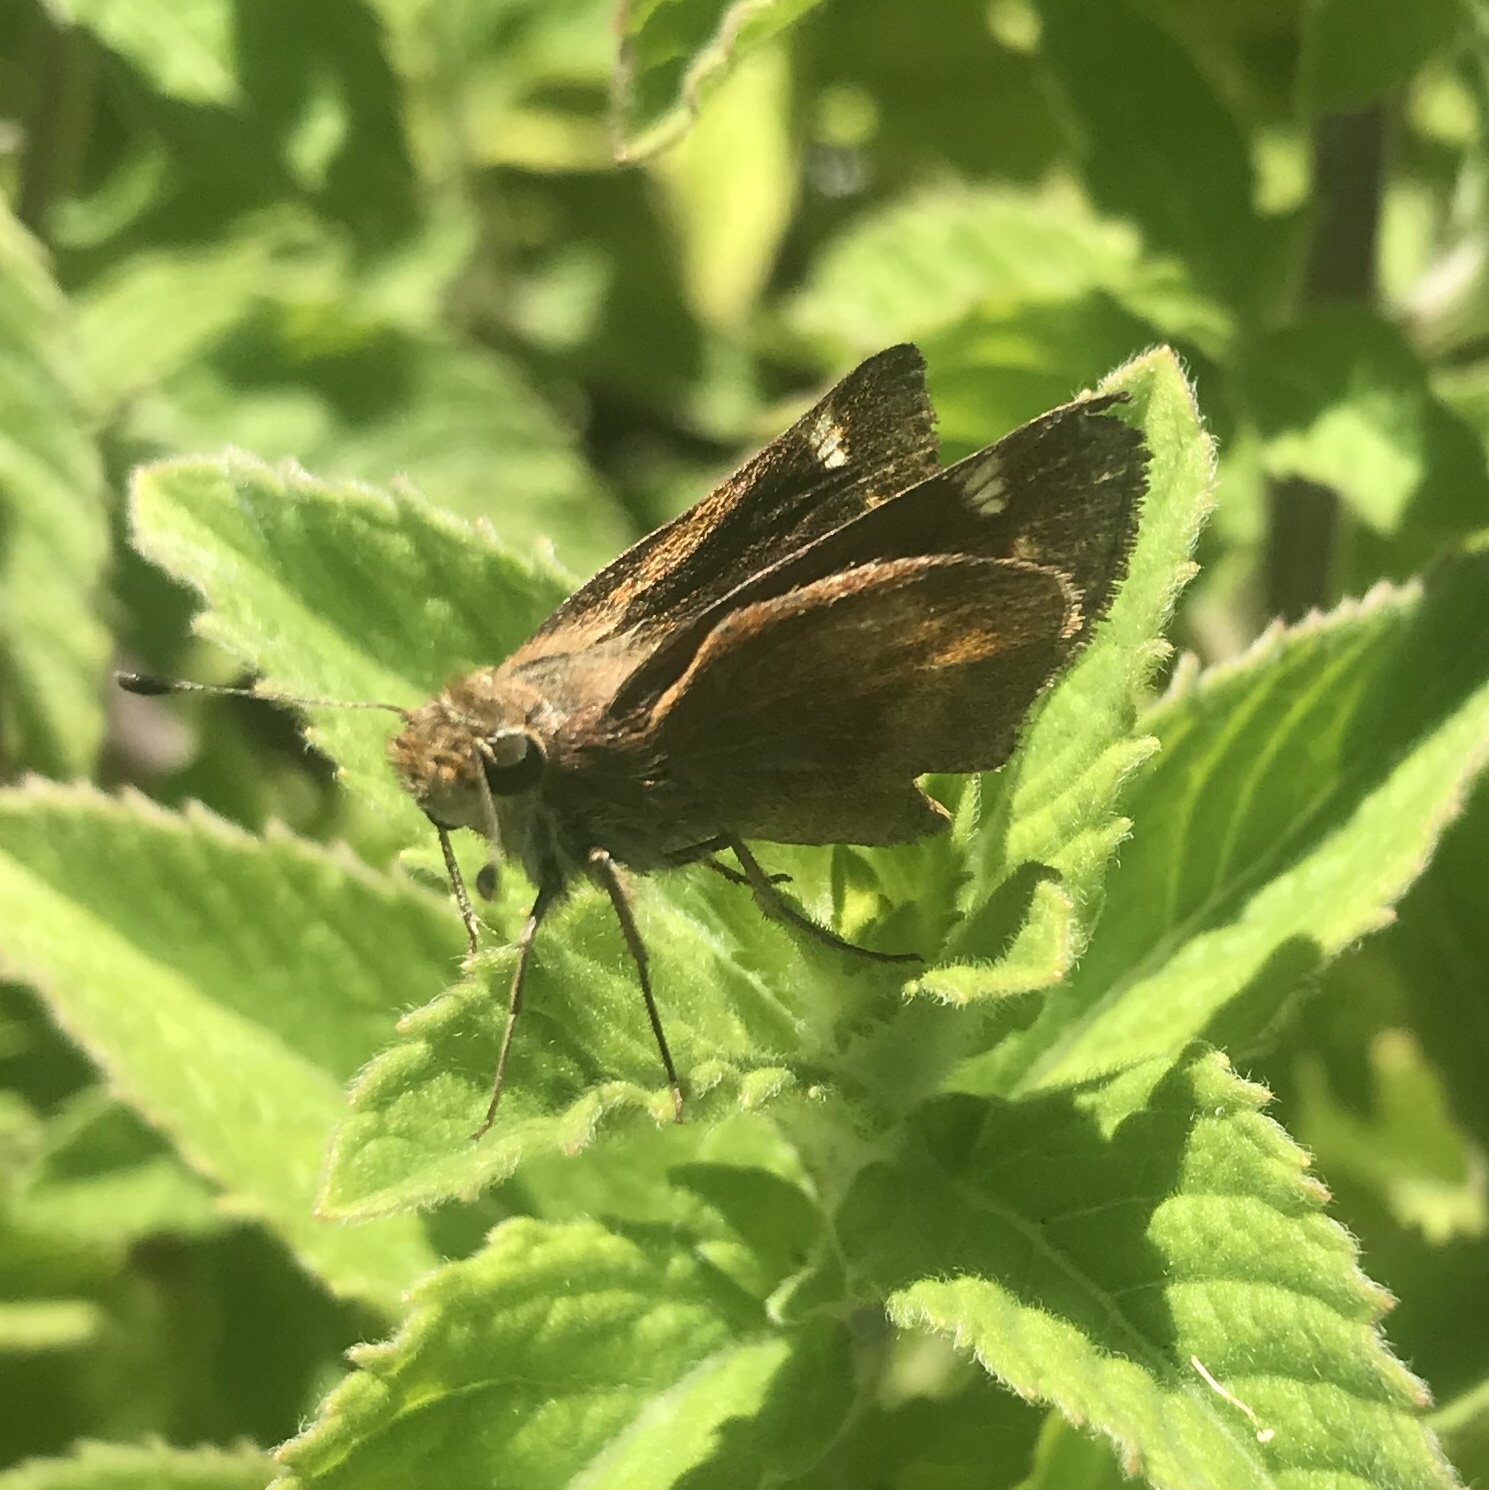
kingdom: Animalia
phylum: Arthropoda
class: Insecta
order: Lepidoptera
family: Hesperiidae
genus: Lon
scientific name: Lon melane
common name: Umber skipper
